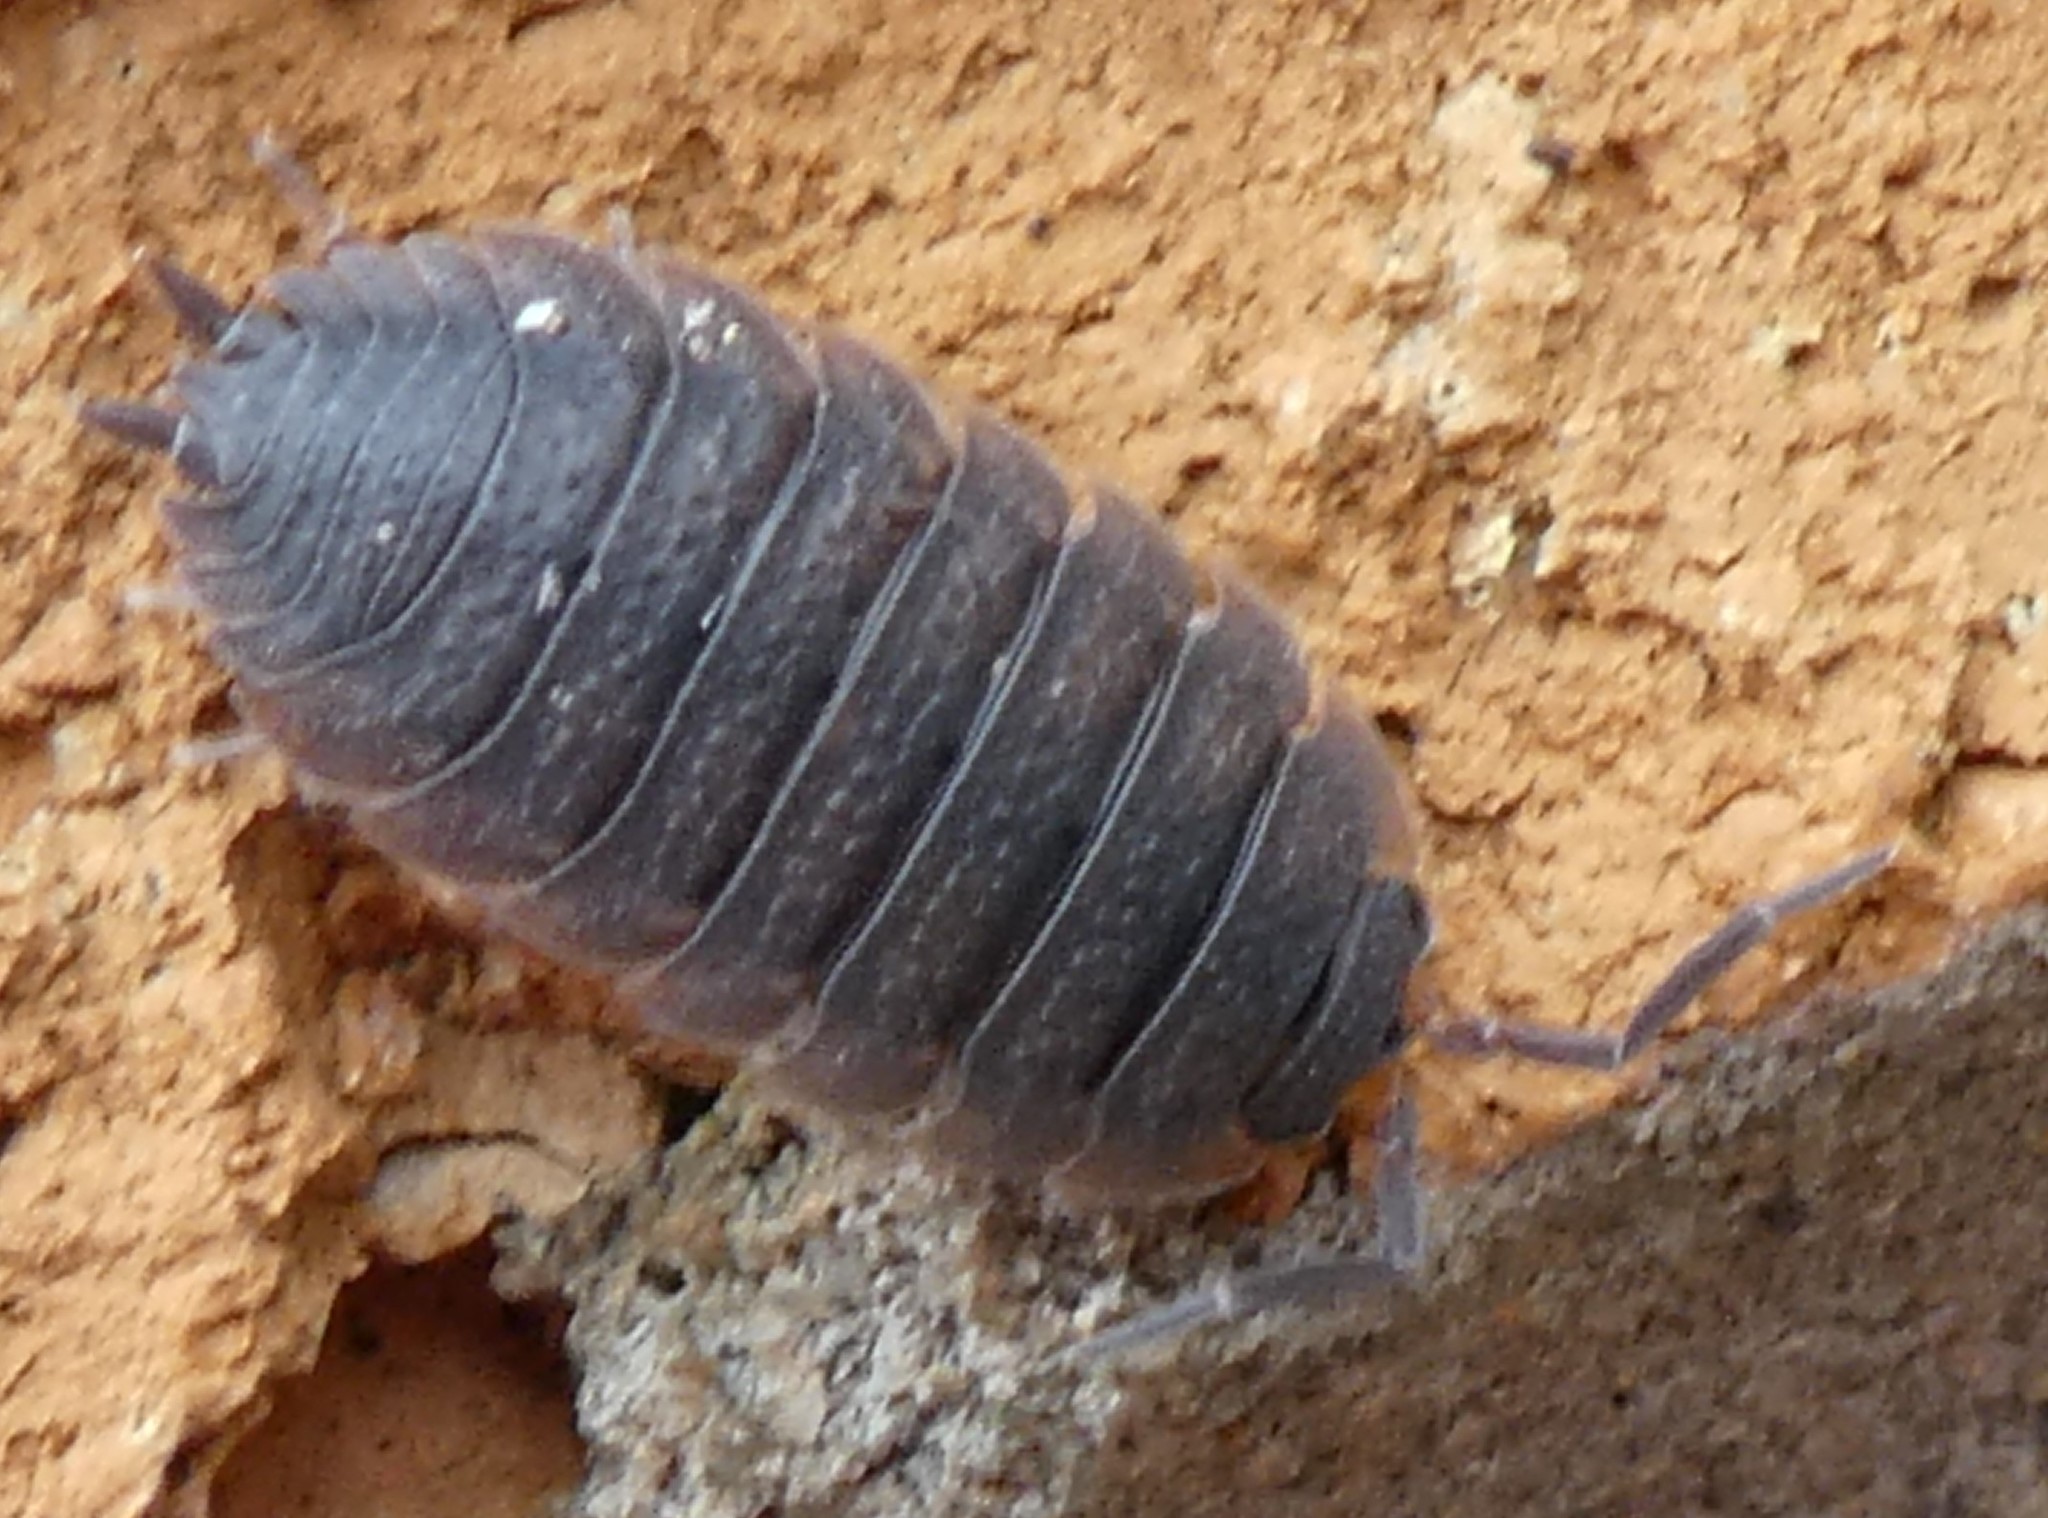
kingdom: Animalia
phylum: Arthropoda
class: Malacostraca
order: Isopoda
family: Porcellionidae
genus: Porcellio
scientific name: Porcellio scaber
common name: Common rough woodlouse
